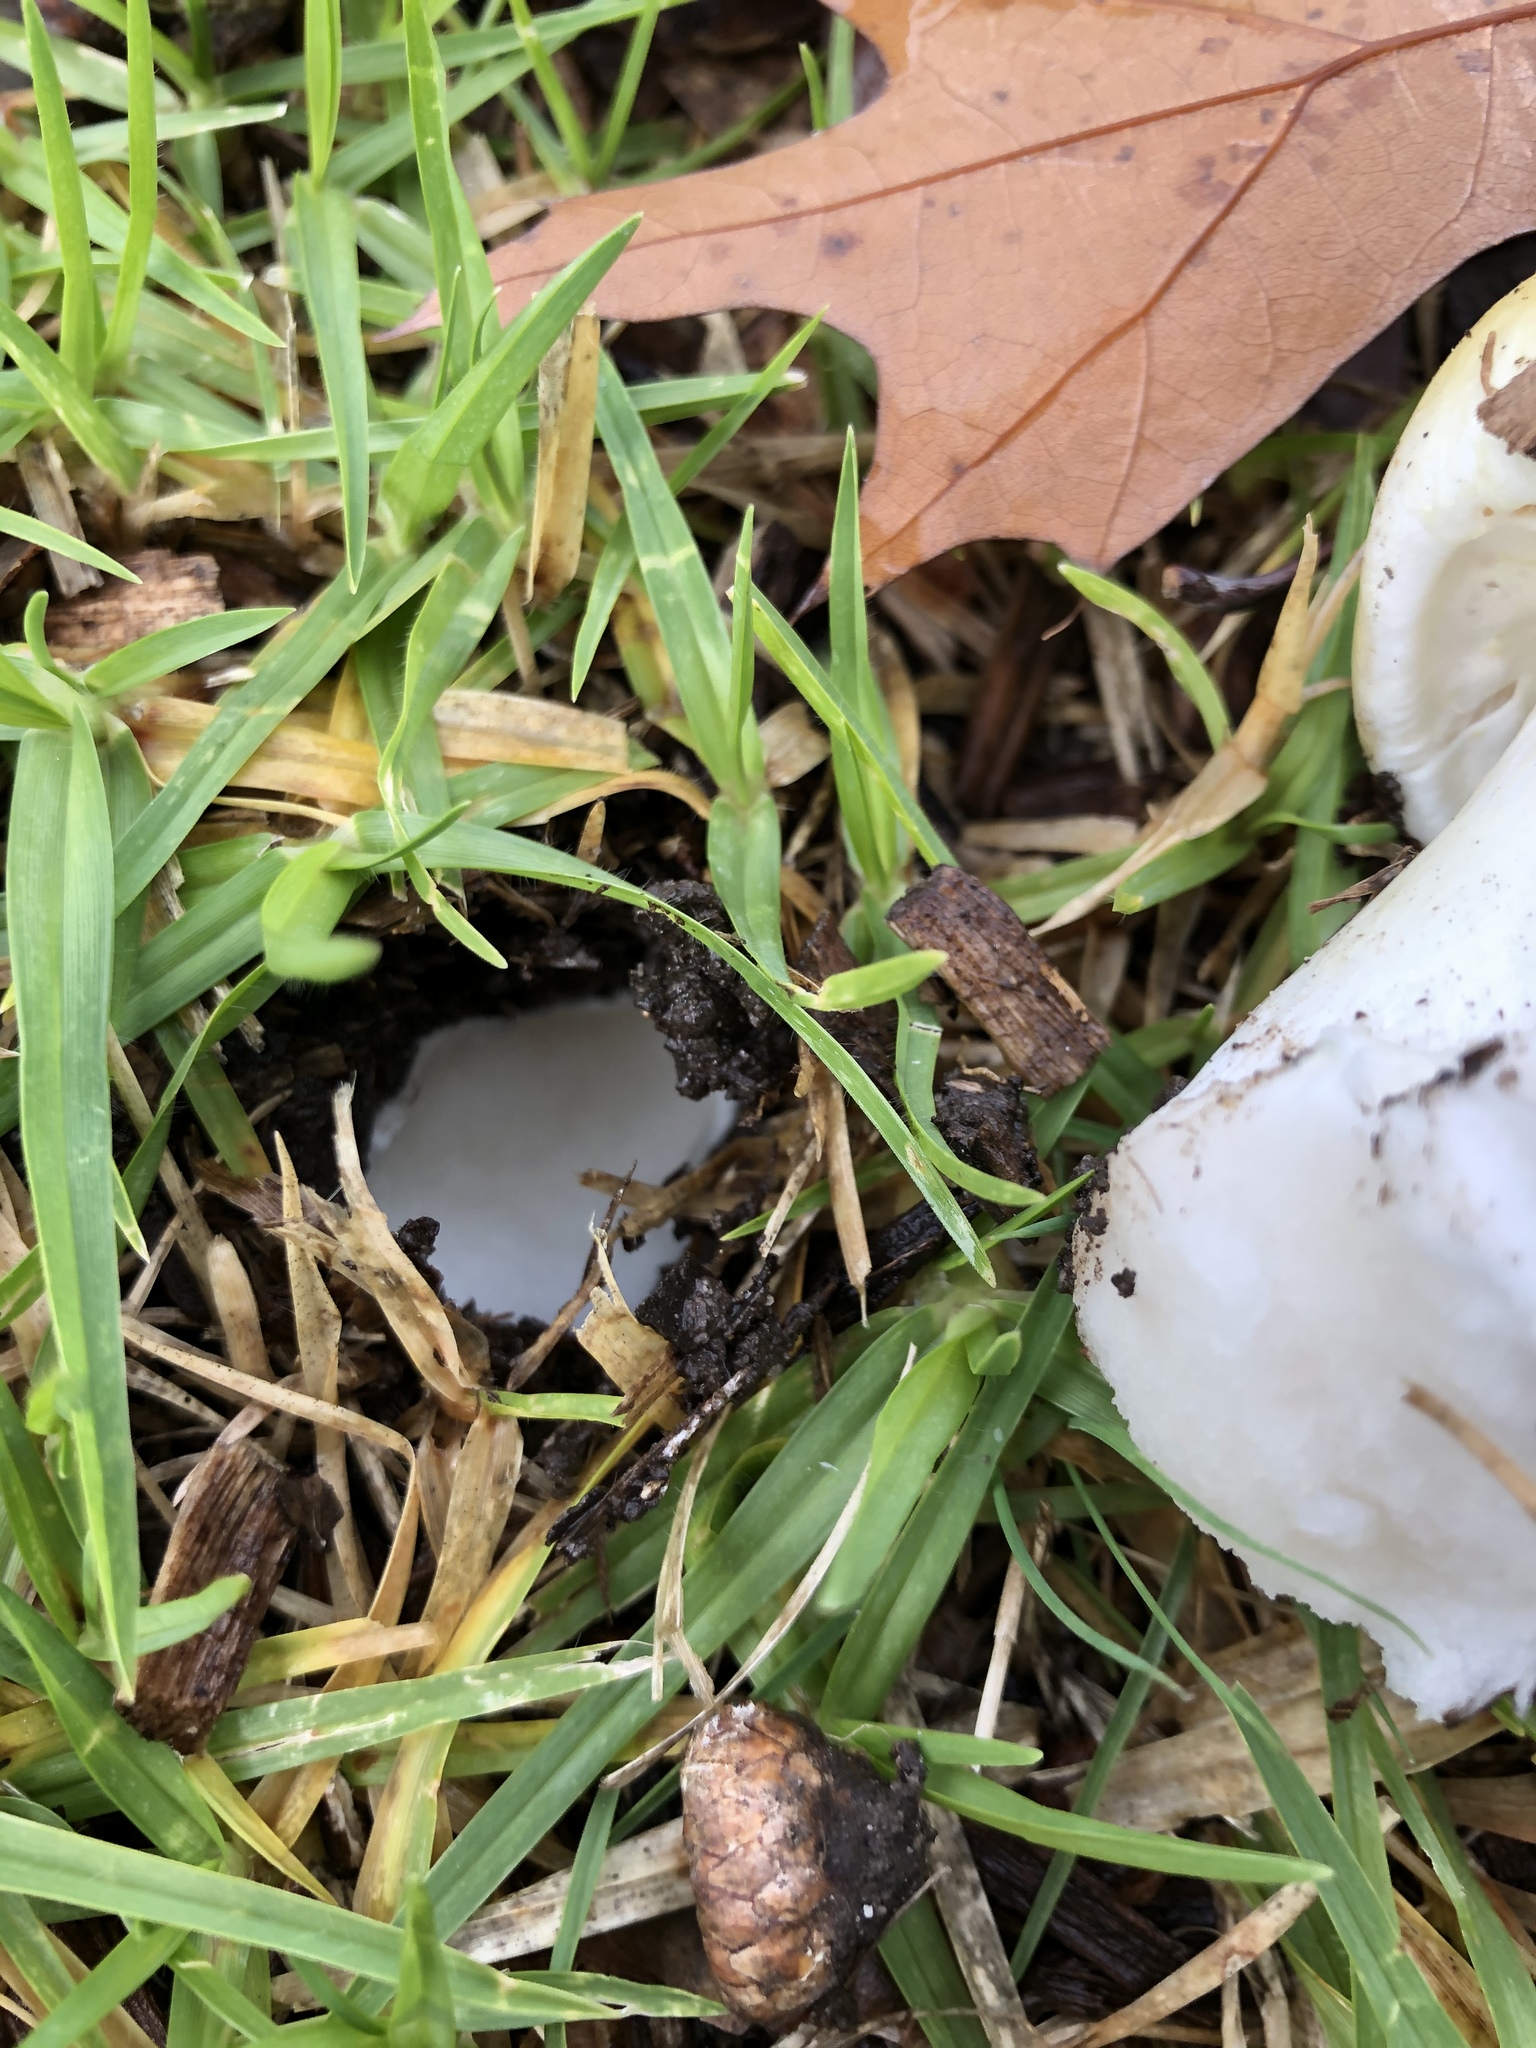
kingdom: Fungi
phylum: Basidiomycota
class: Agaricomycetes
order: Agaricales
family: Amanitaceae
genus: Amanita
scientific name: Amanita phalloides
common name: Death cap
